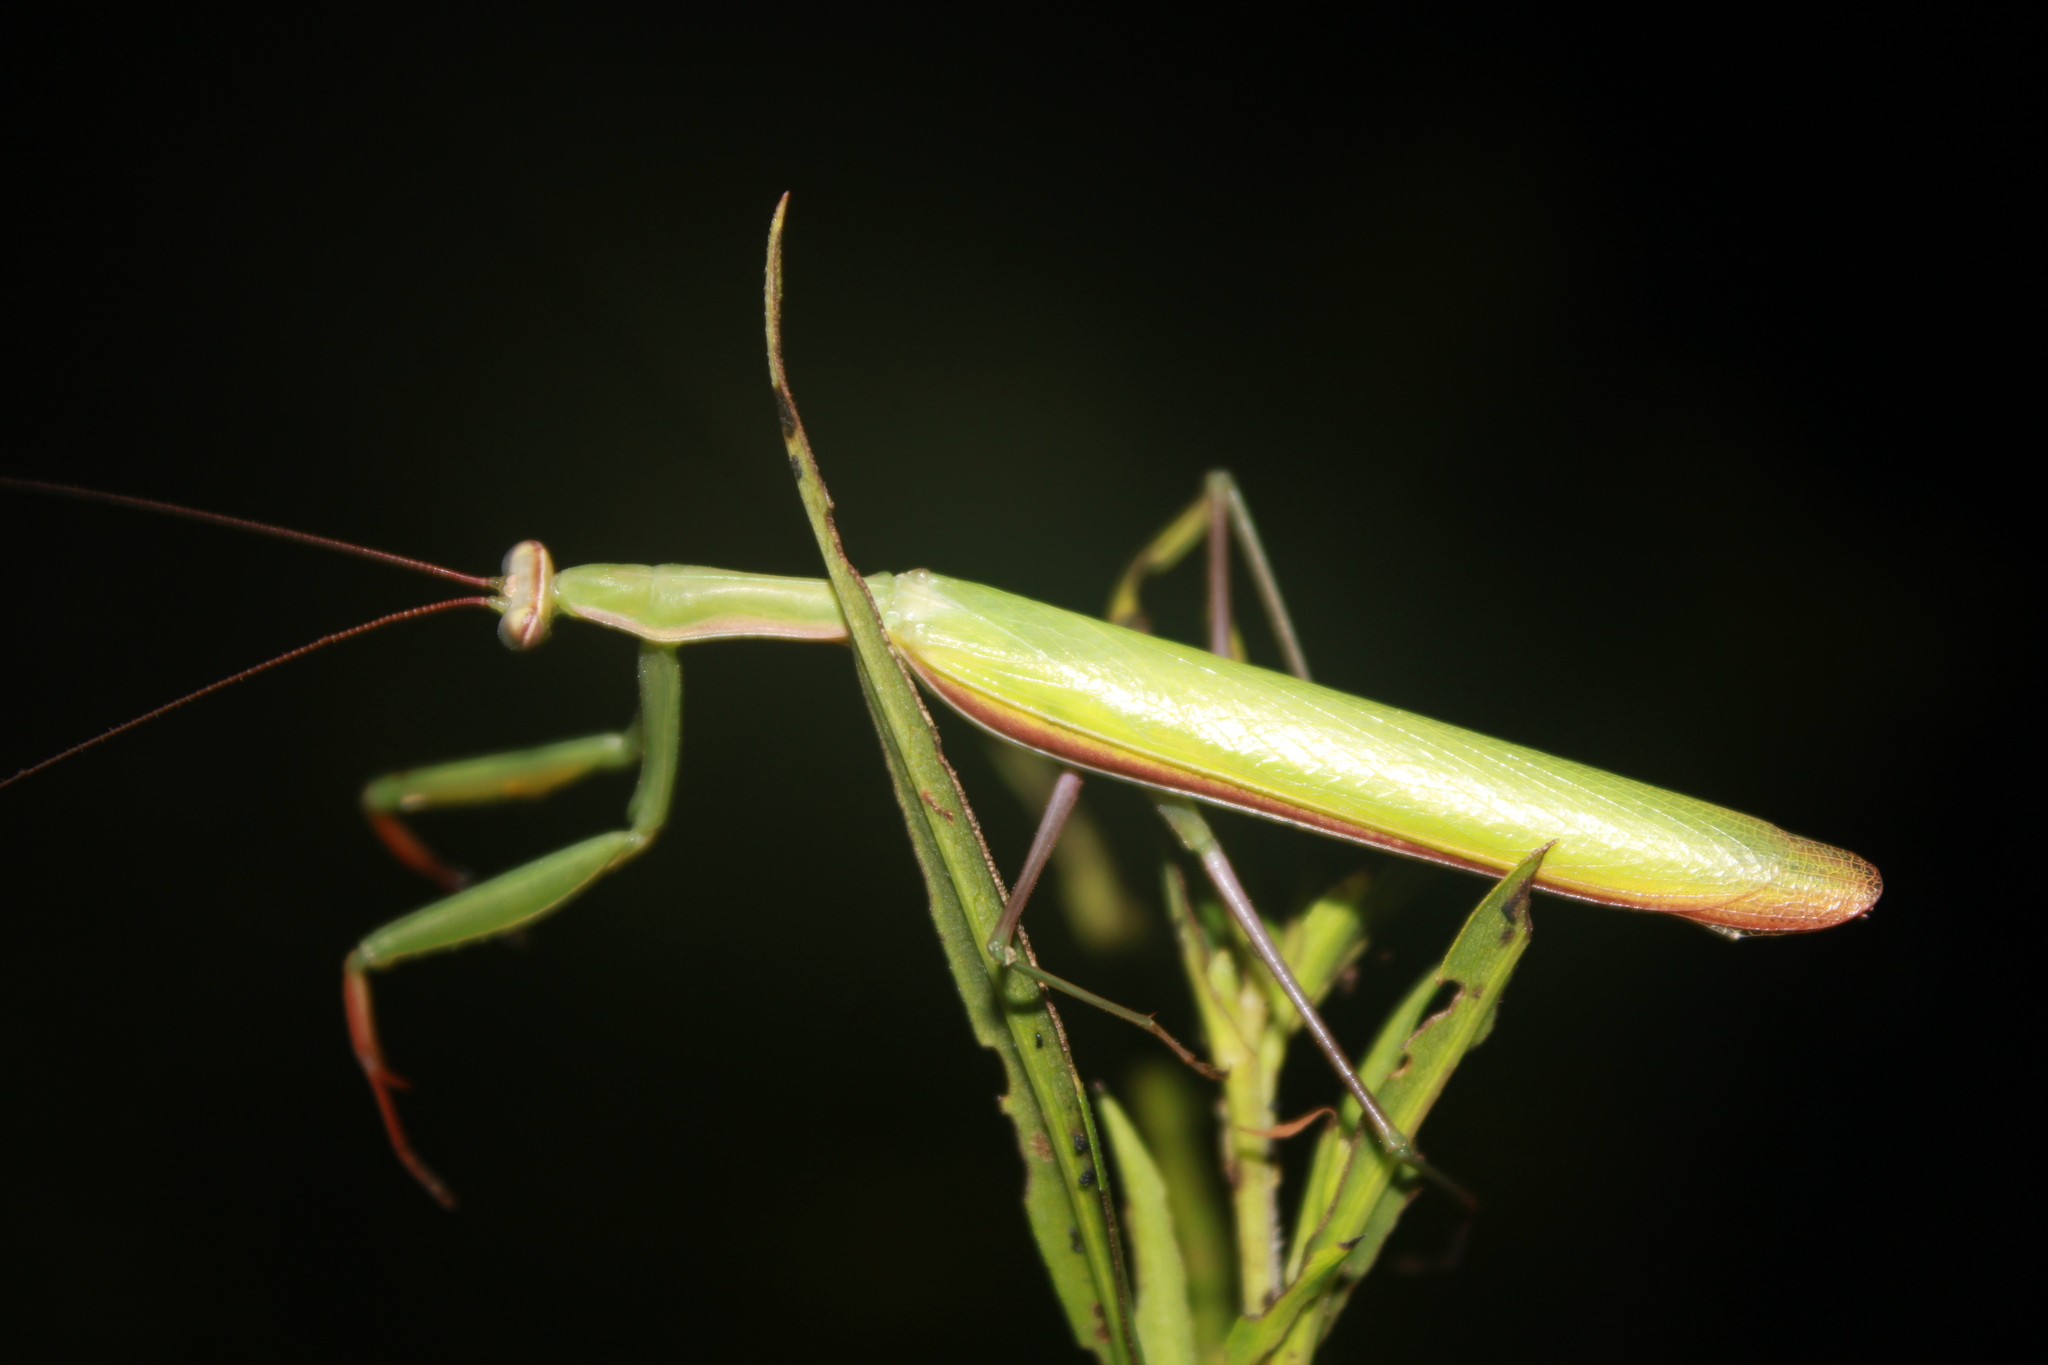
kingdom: Animalia
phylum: Arthropoda
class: Insecta
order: Mantodea
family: Mantidae
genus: Mantis
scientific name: Mantis religiosa
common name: Praying mantis
